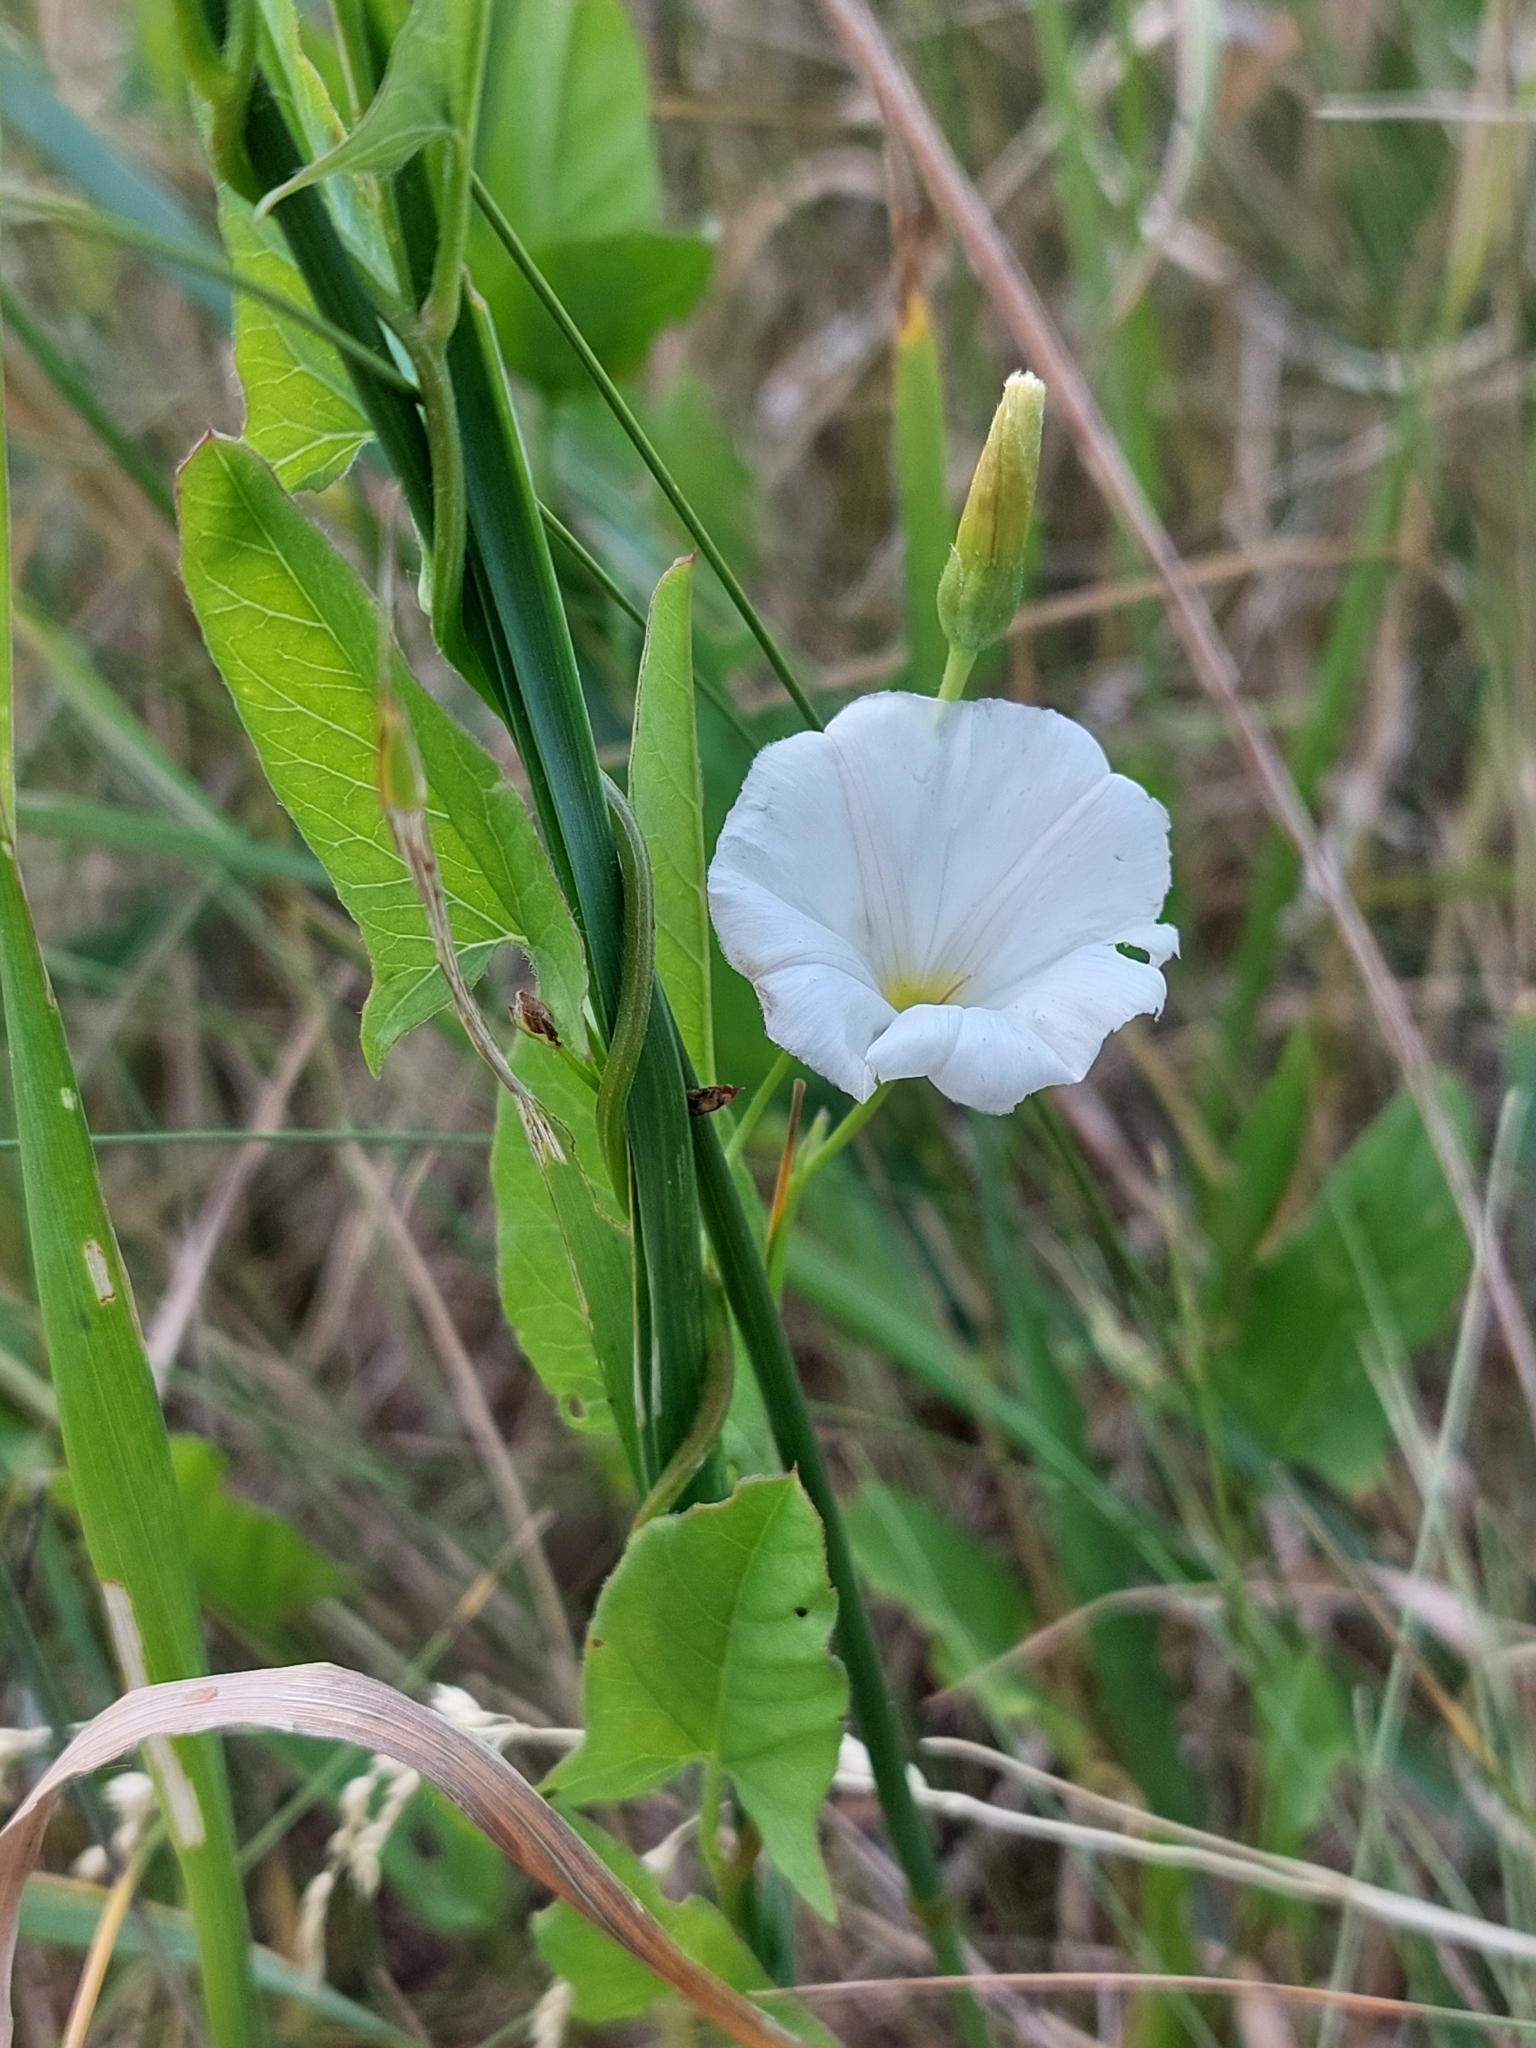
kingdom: Plantae
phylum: Tracheophyta
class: Magnoliopsida
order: Solanales
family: Convolvulaceae
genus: Convolvulus
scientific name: Convolvulus arvensis
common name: Field bindweed
